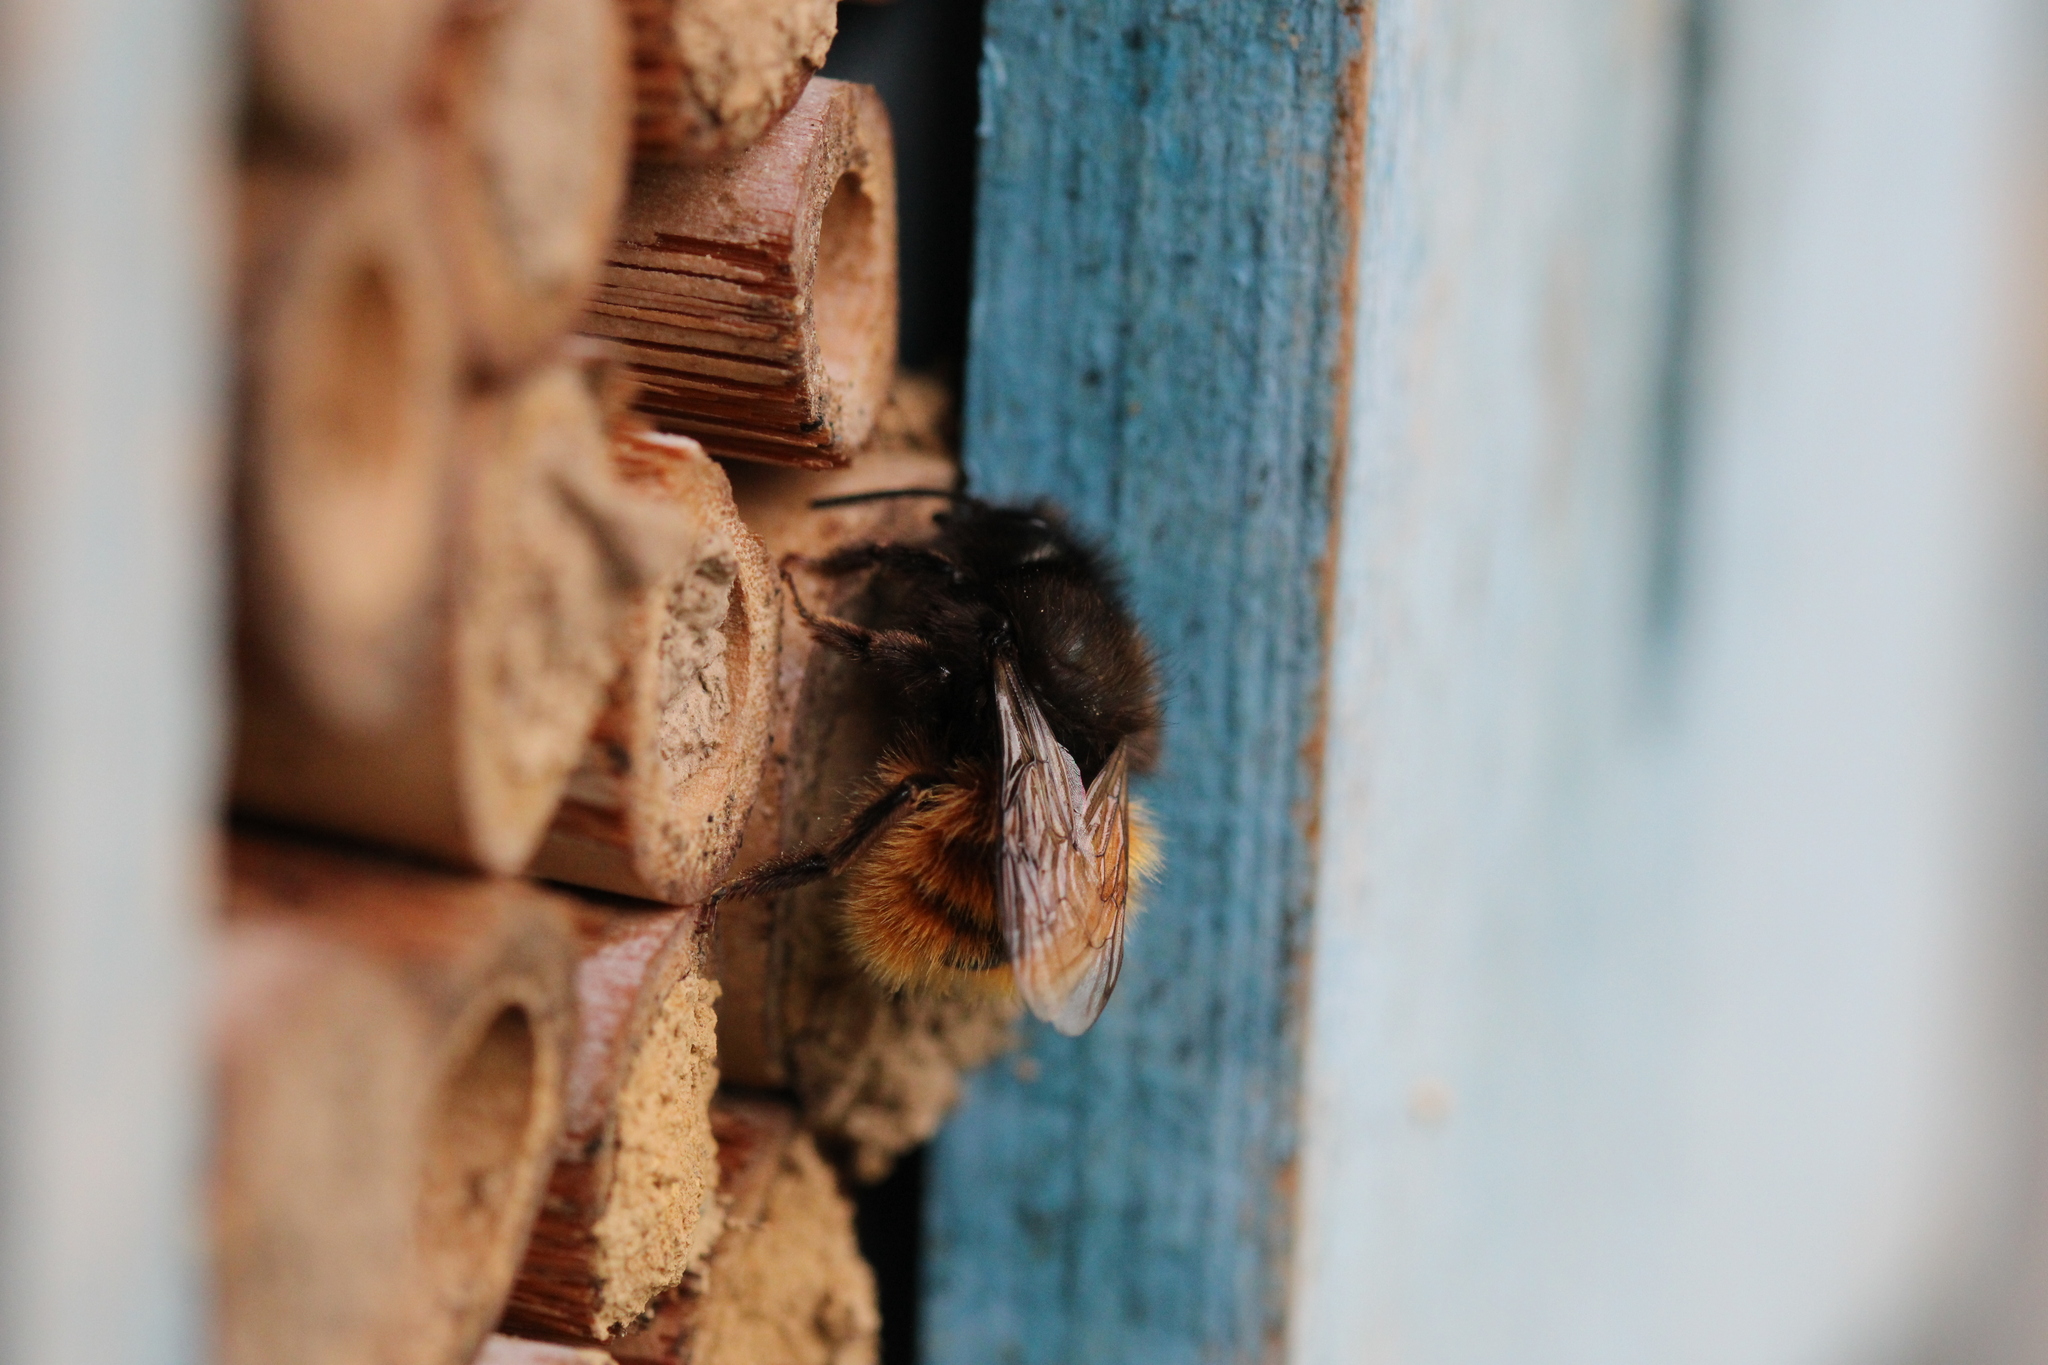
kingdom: Animalia
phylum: Arthropoda
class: Insecta
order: Hymenoptera
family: Megachilidae
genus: Osmia
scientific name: Osmia cornuta
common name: Mason bee
